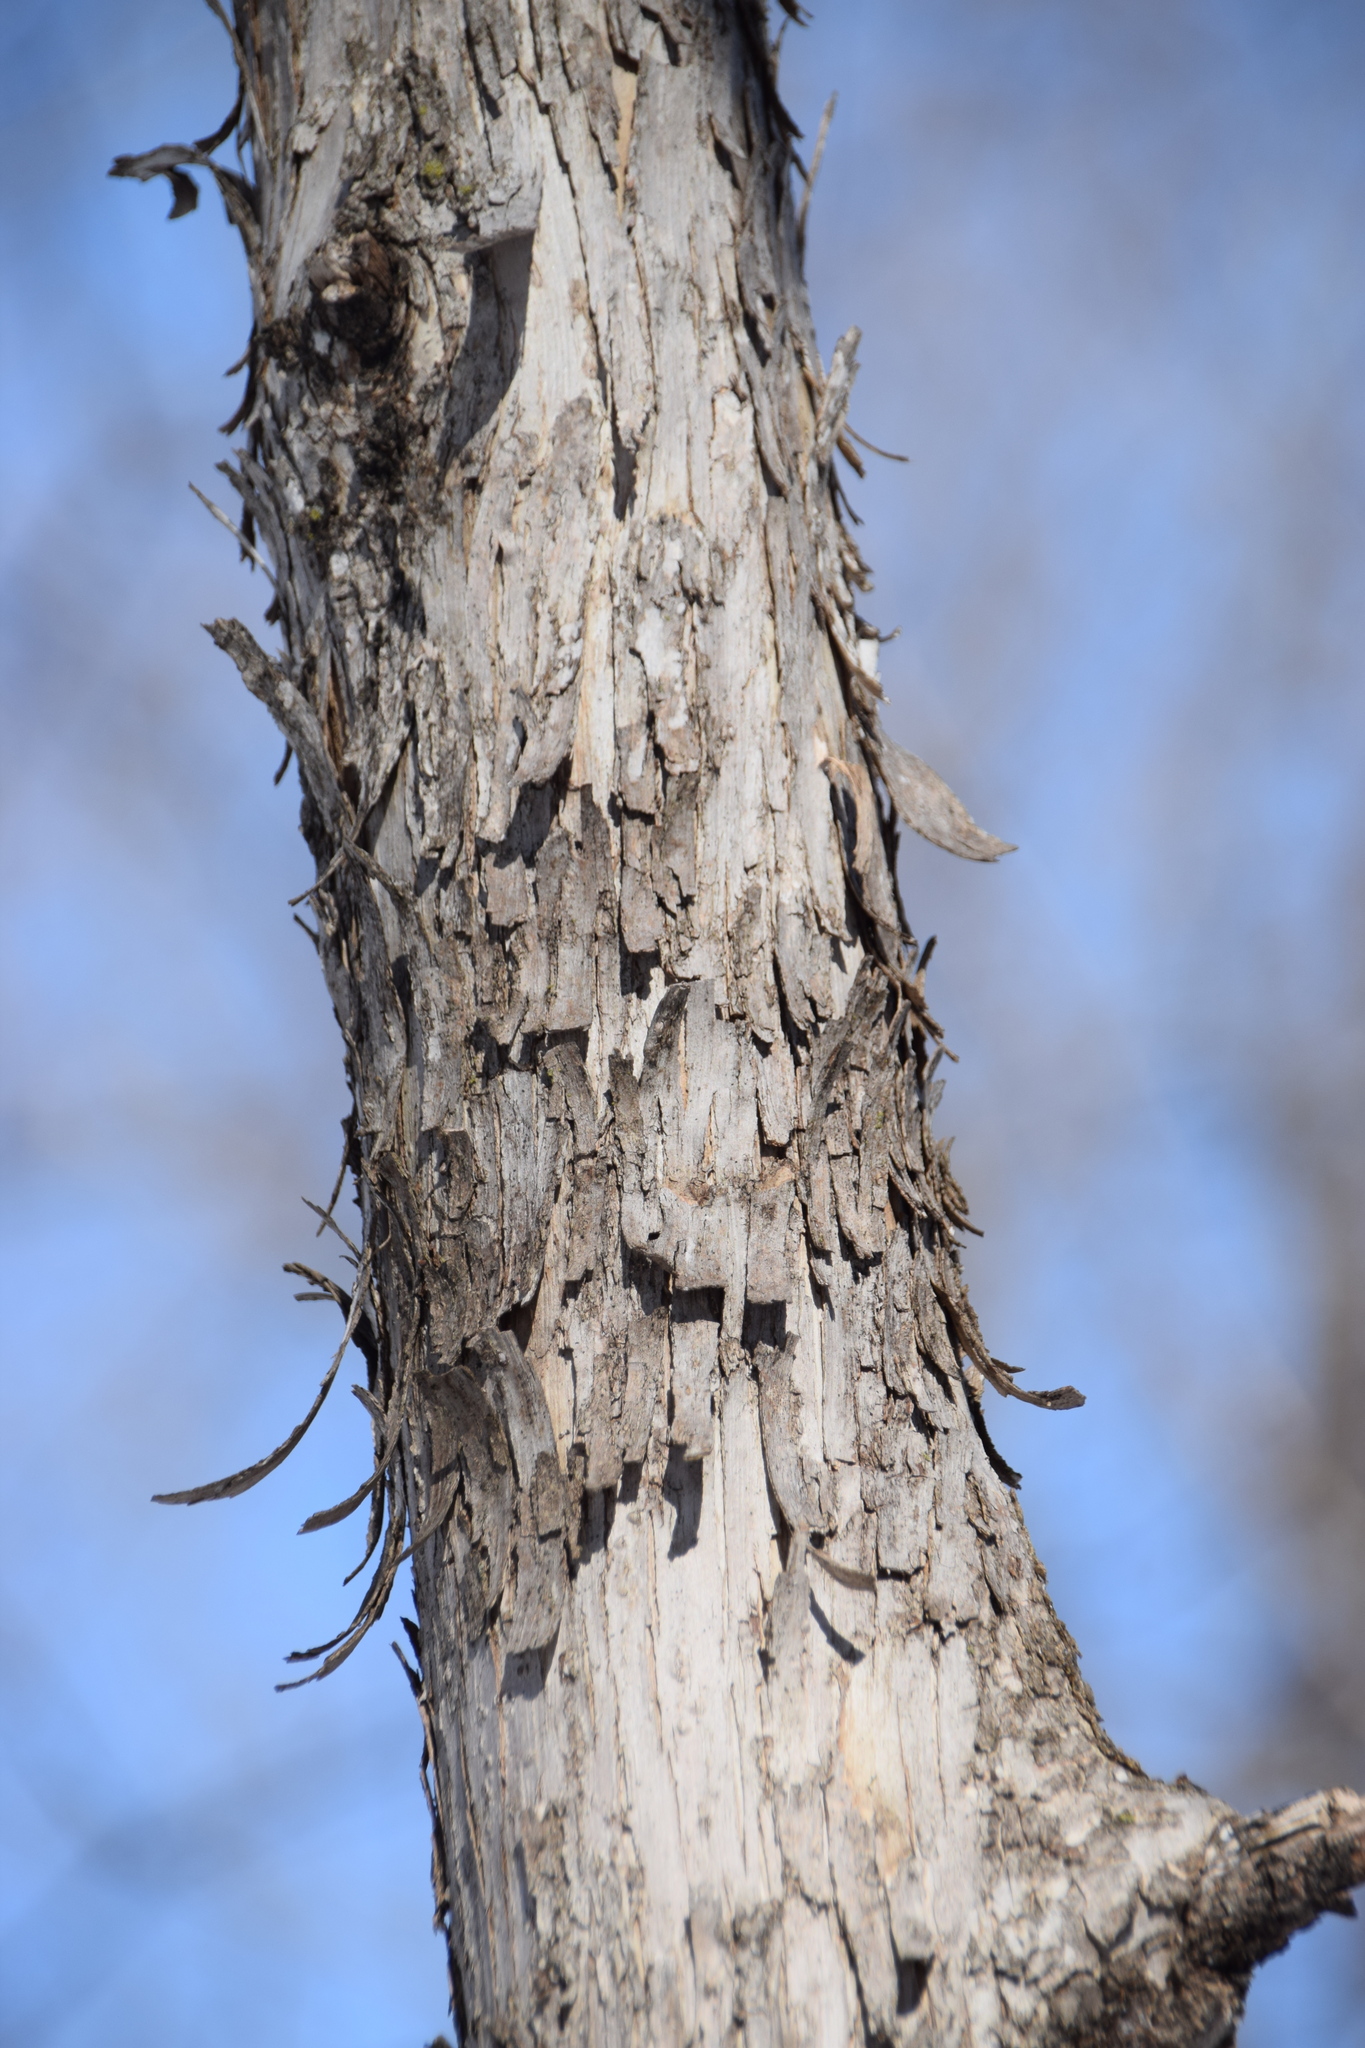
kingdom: Plantae
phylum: Tracheophyta
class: Magnoliopsida
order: Fagales
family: Betulaceae
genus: Ostrya
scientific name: Ostrya virginiana
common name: Ironwood
